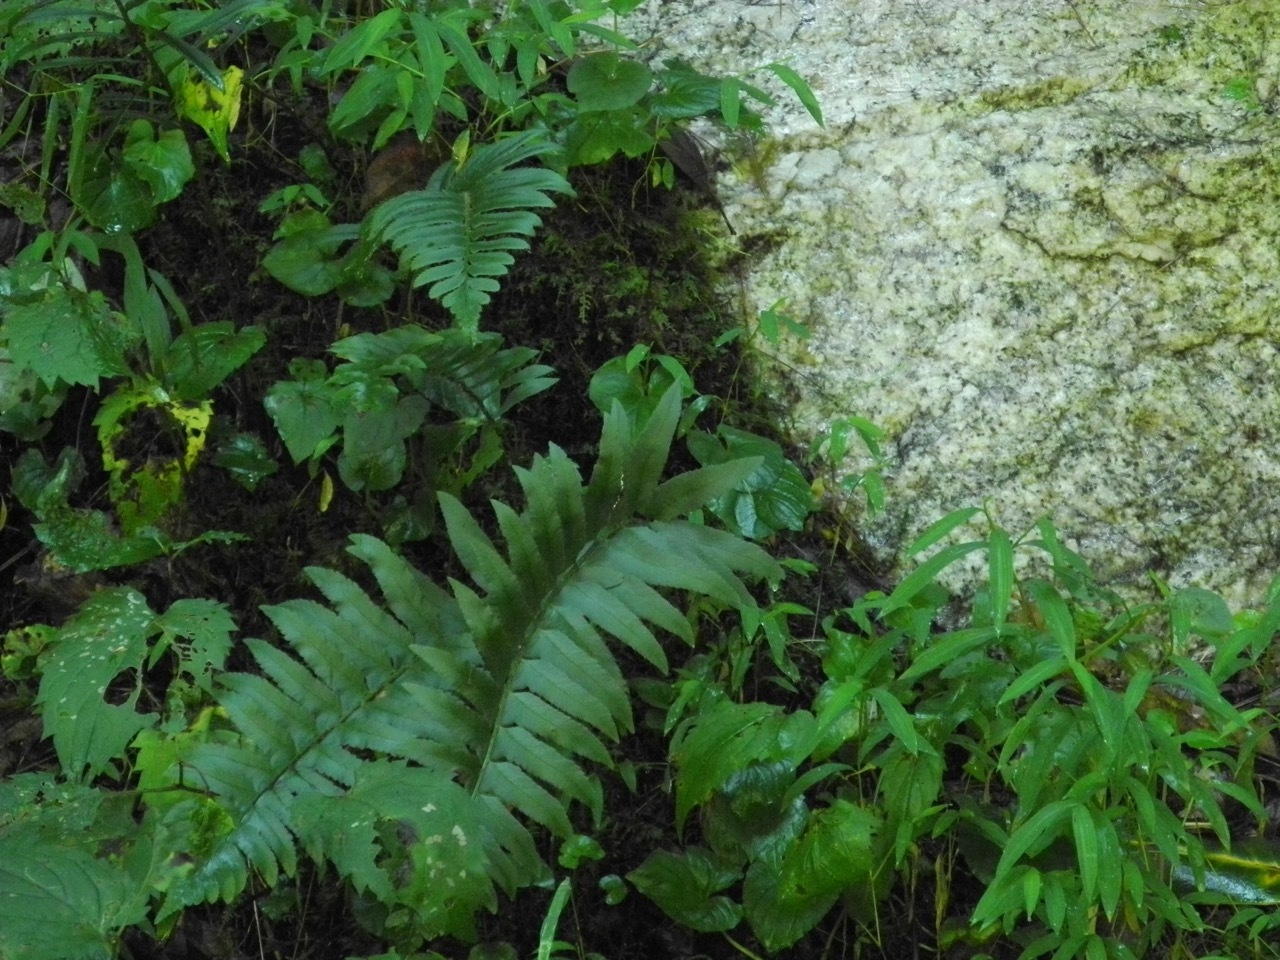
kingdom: Plantae
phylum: Tracheophyta
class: Polypodiopsida
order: Polypodiales
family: Dryopteridaceae
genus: Polystichum
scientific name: Polystichum acrostichoides
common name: Christmas fern
